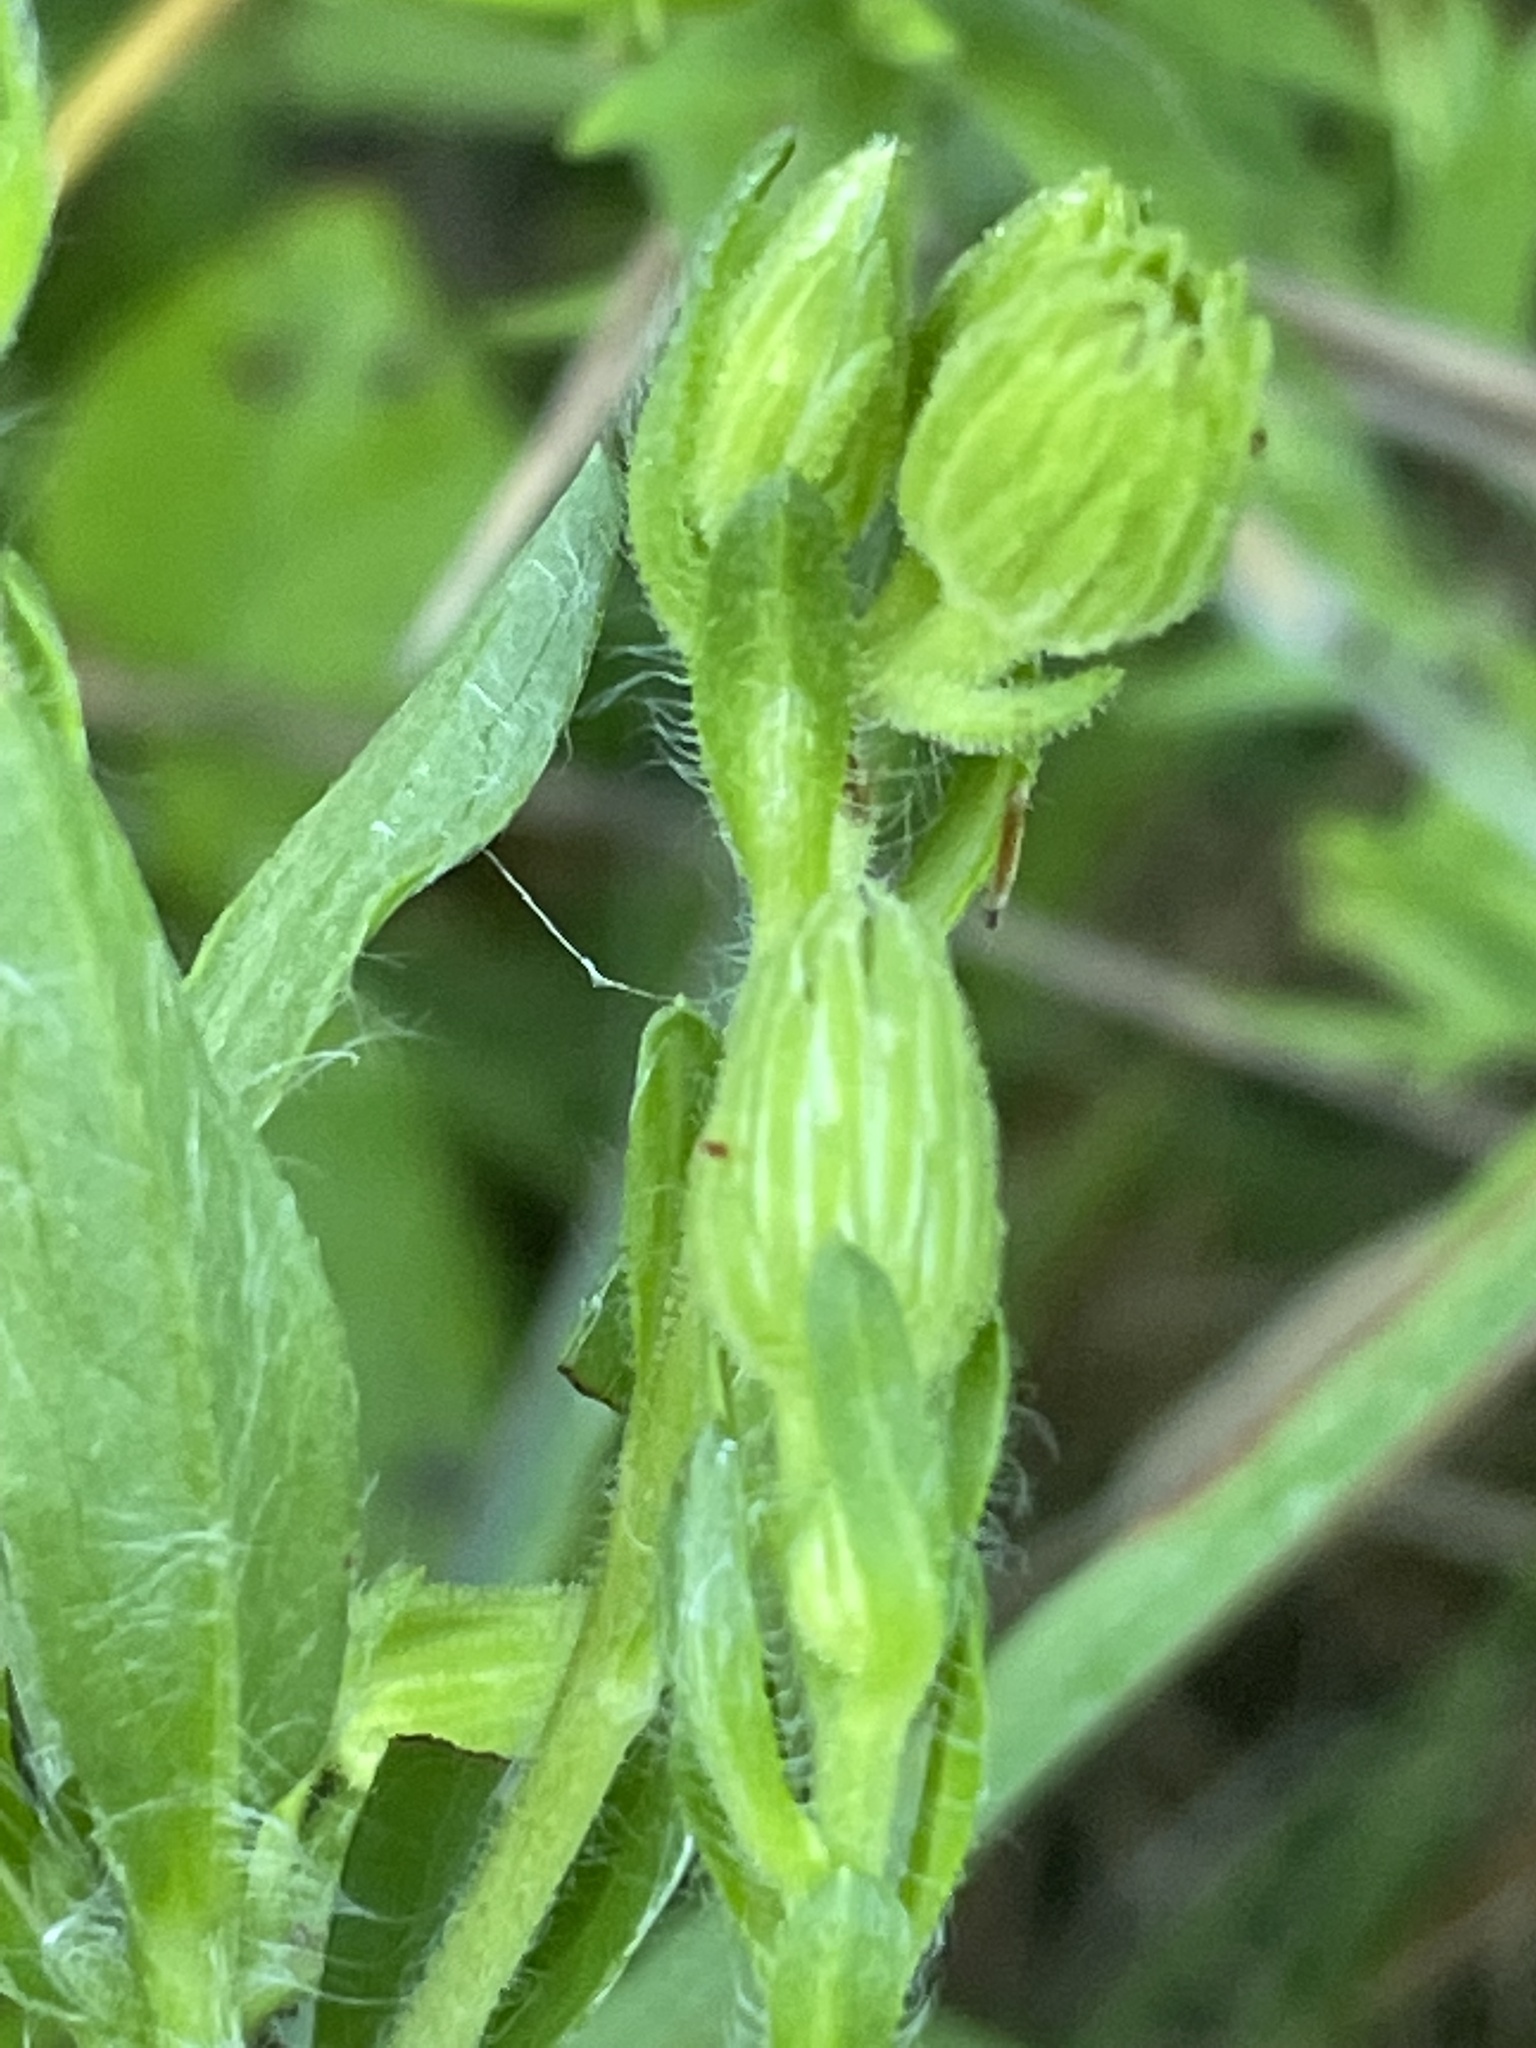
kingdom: Plantae
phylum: Tracheophyta
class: Magnoliopsida
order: Asterales
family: Asteraceae
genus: Chrysopsis
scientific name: Chrysopsis mariana
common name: Maryland golden-aster
